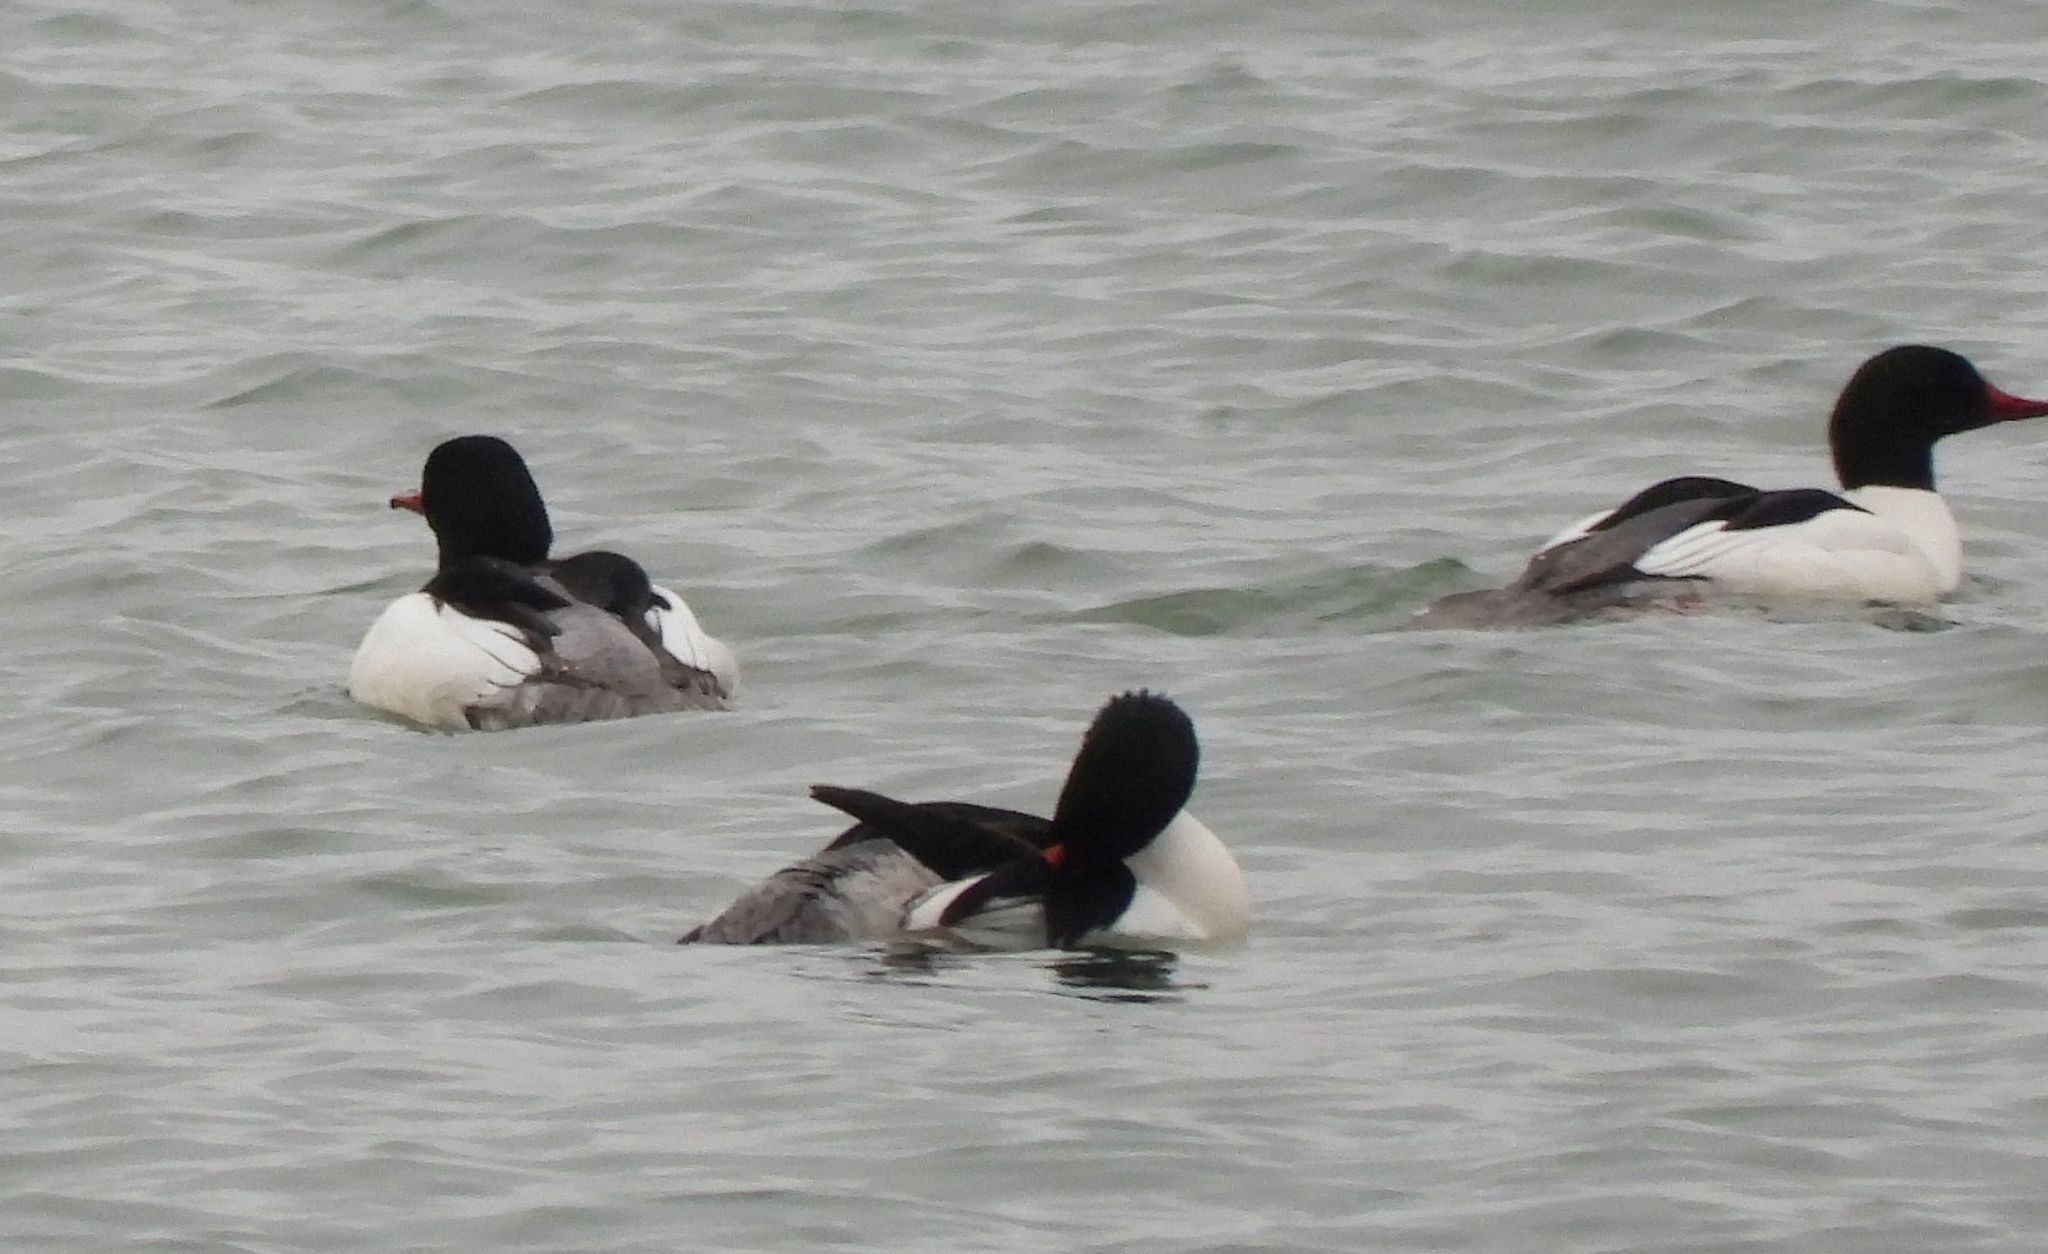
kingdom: Animalia
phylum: Chordata
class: Aves
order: Anseriformes
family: Anatidae
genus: Mergus
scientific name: Mergus merganser
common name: Common merganser
